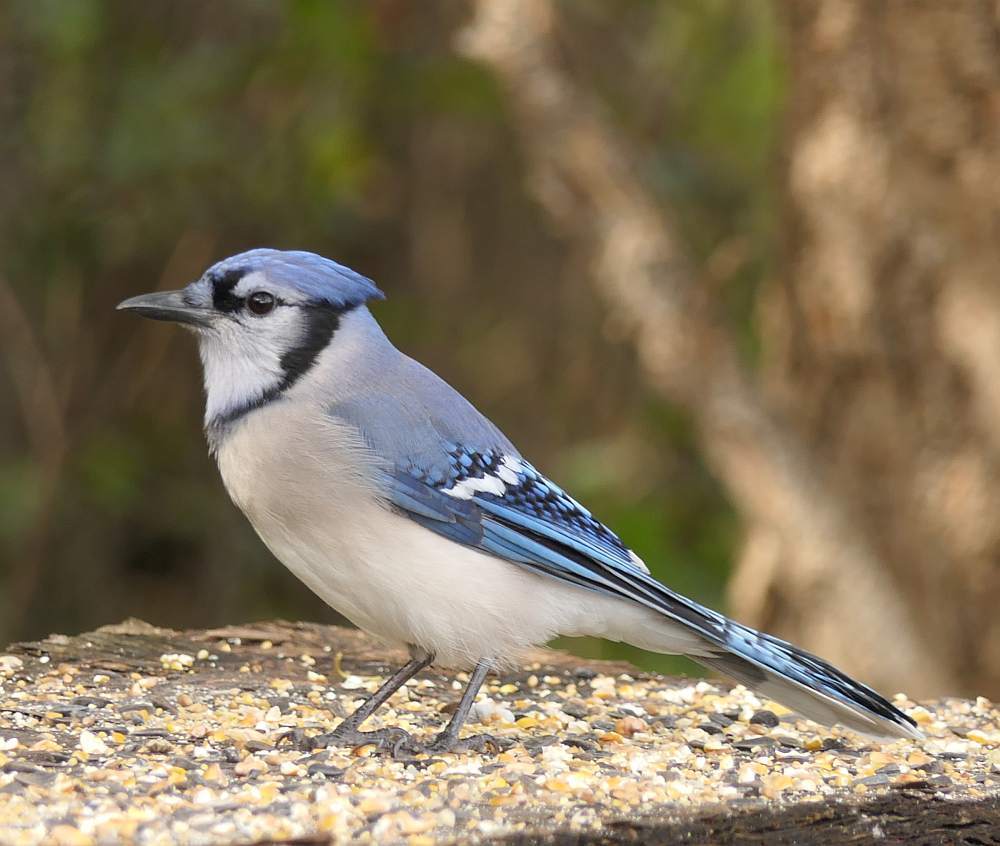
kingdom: Animalia
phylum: Chordata
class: Aves
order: Passeriformes
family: Corvidae
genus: Cyanocitta
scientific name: Cyanocitta cristata
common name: Blue jay
